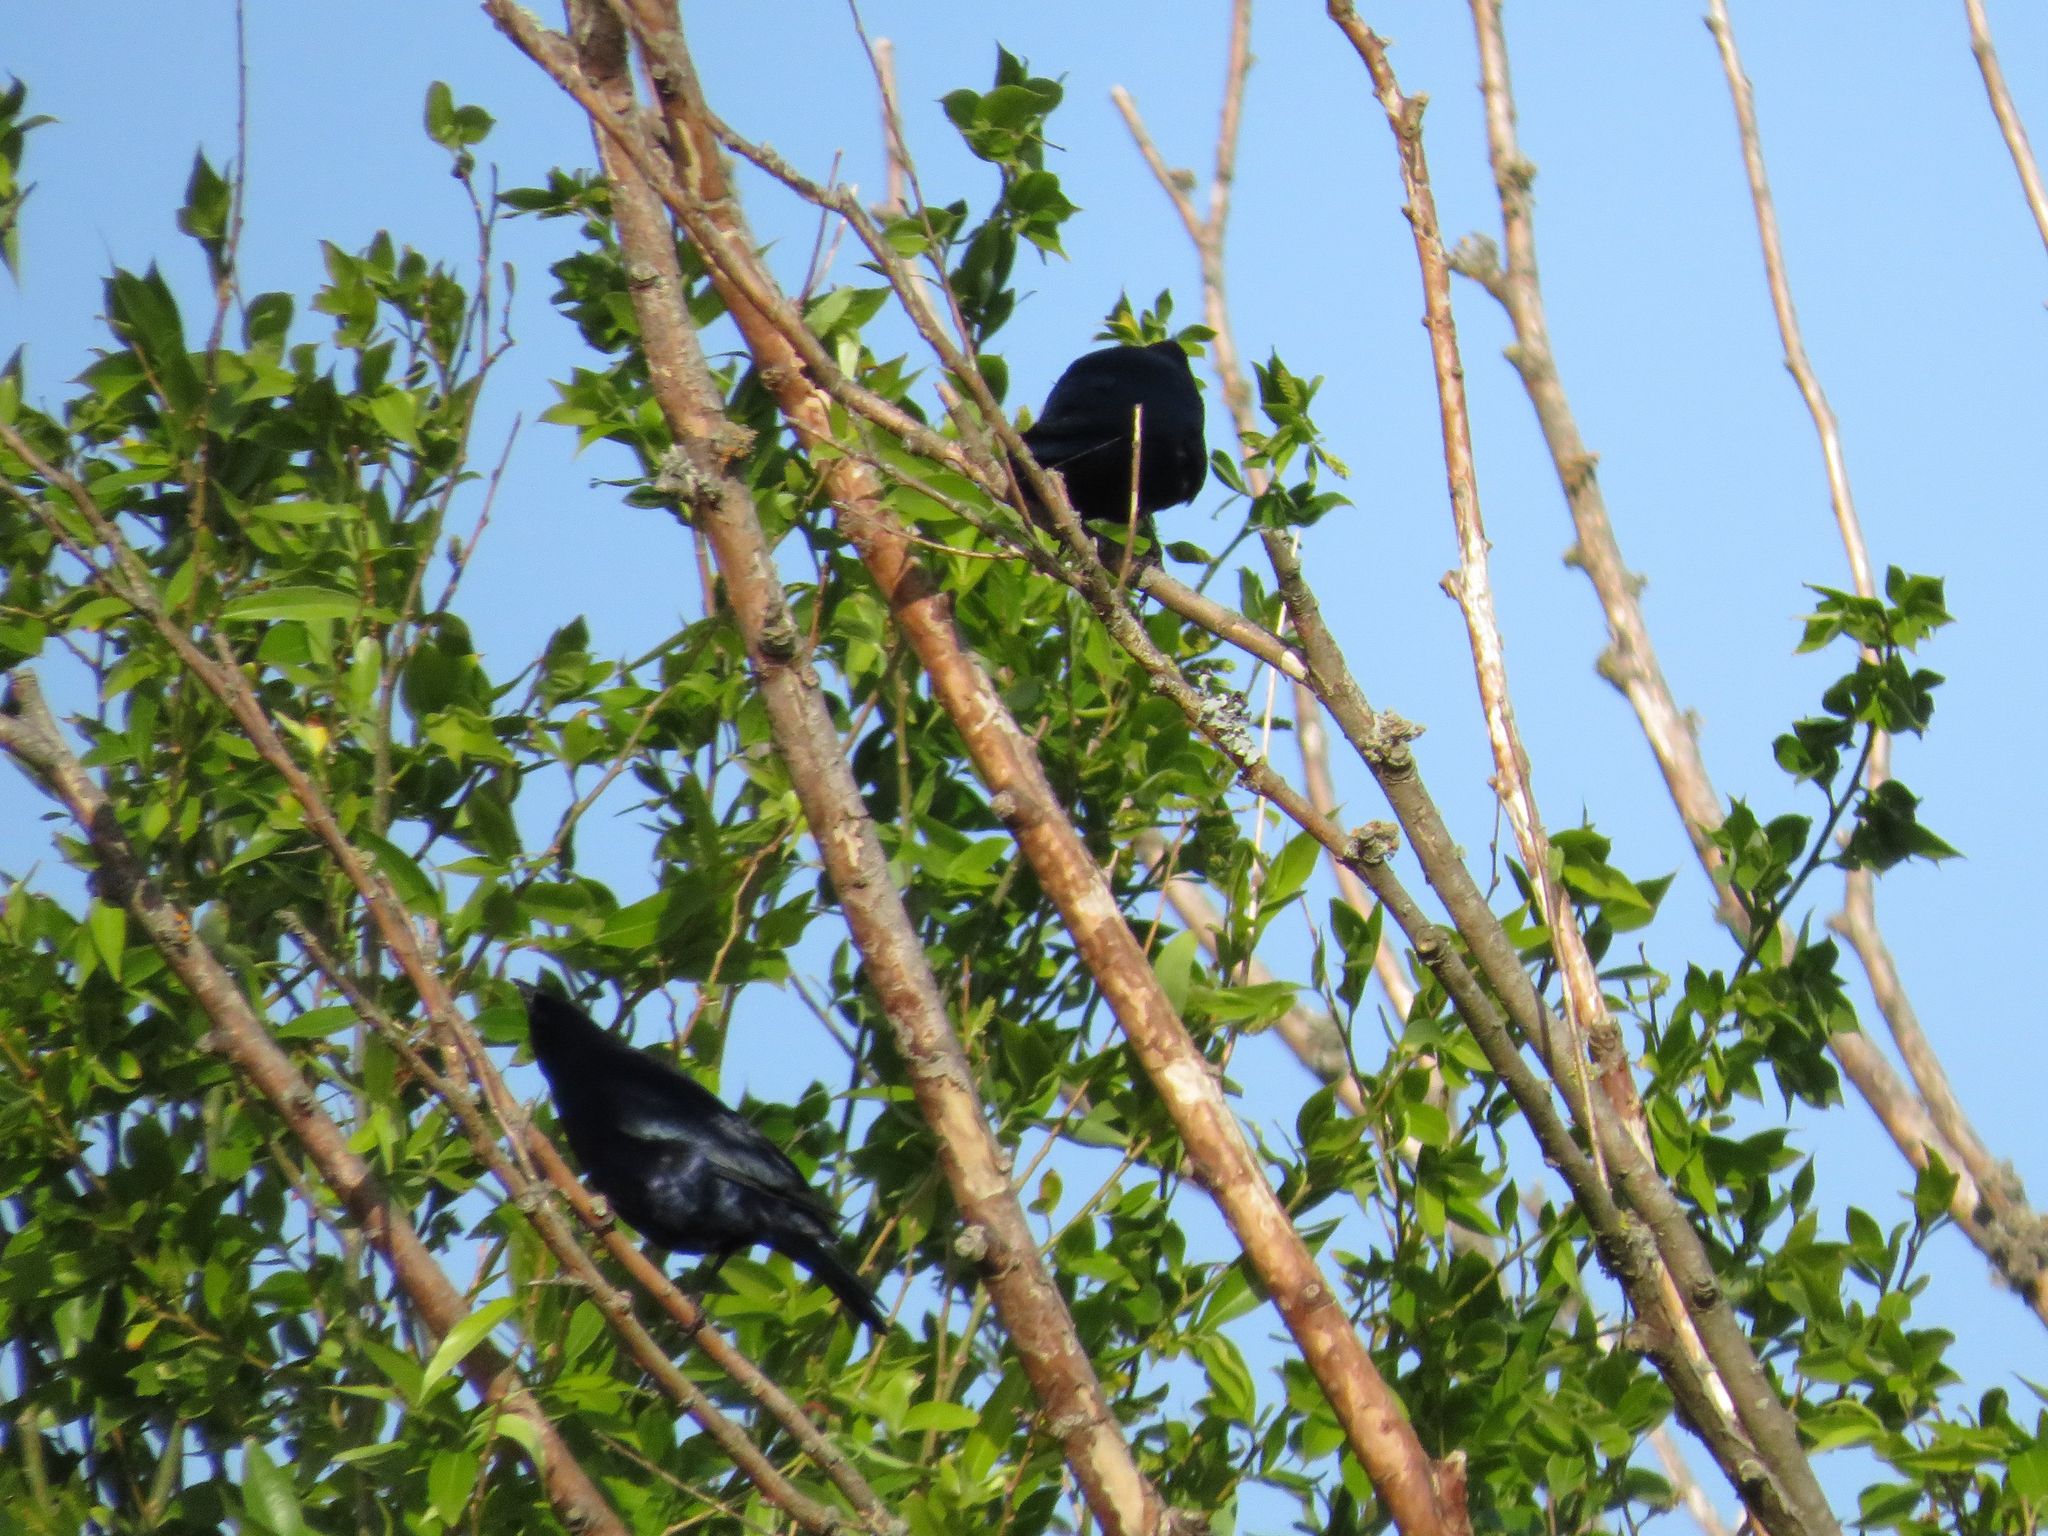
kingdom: Animalia
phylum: Chordata
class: Aves
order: Passeriformes
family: Icteridae
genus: Molothrus
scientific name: Molothrus bonariensis
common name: Shiny cowbird
